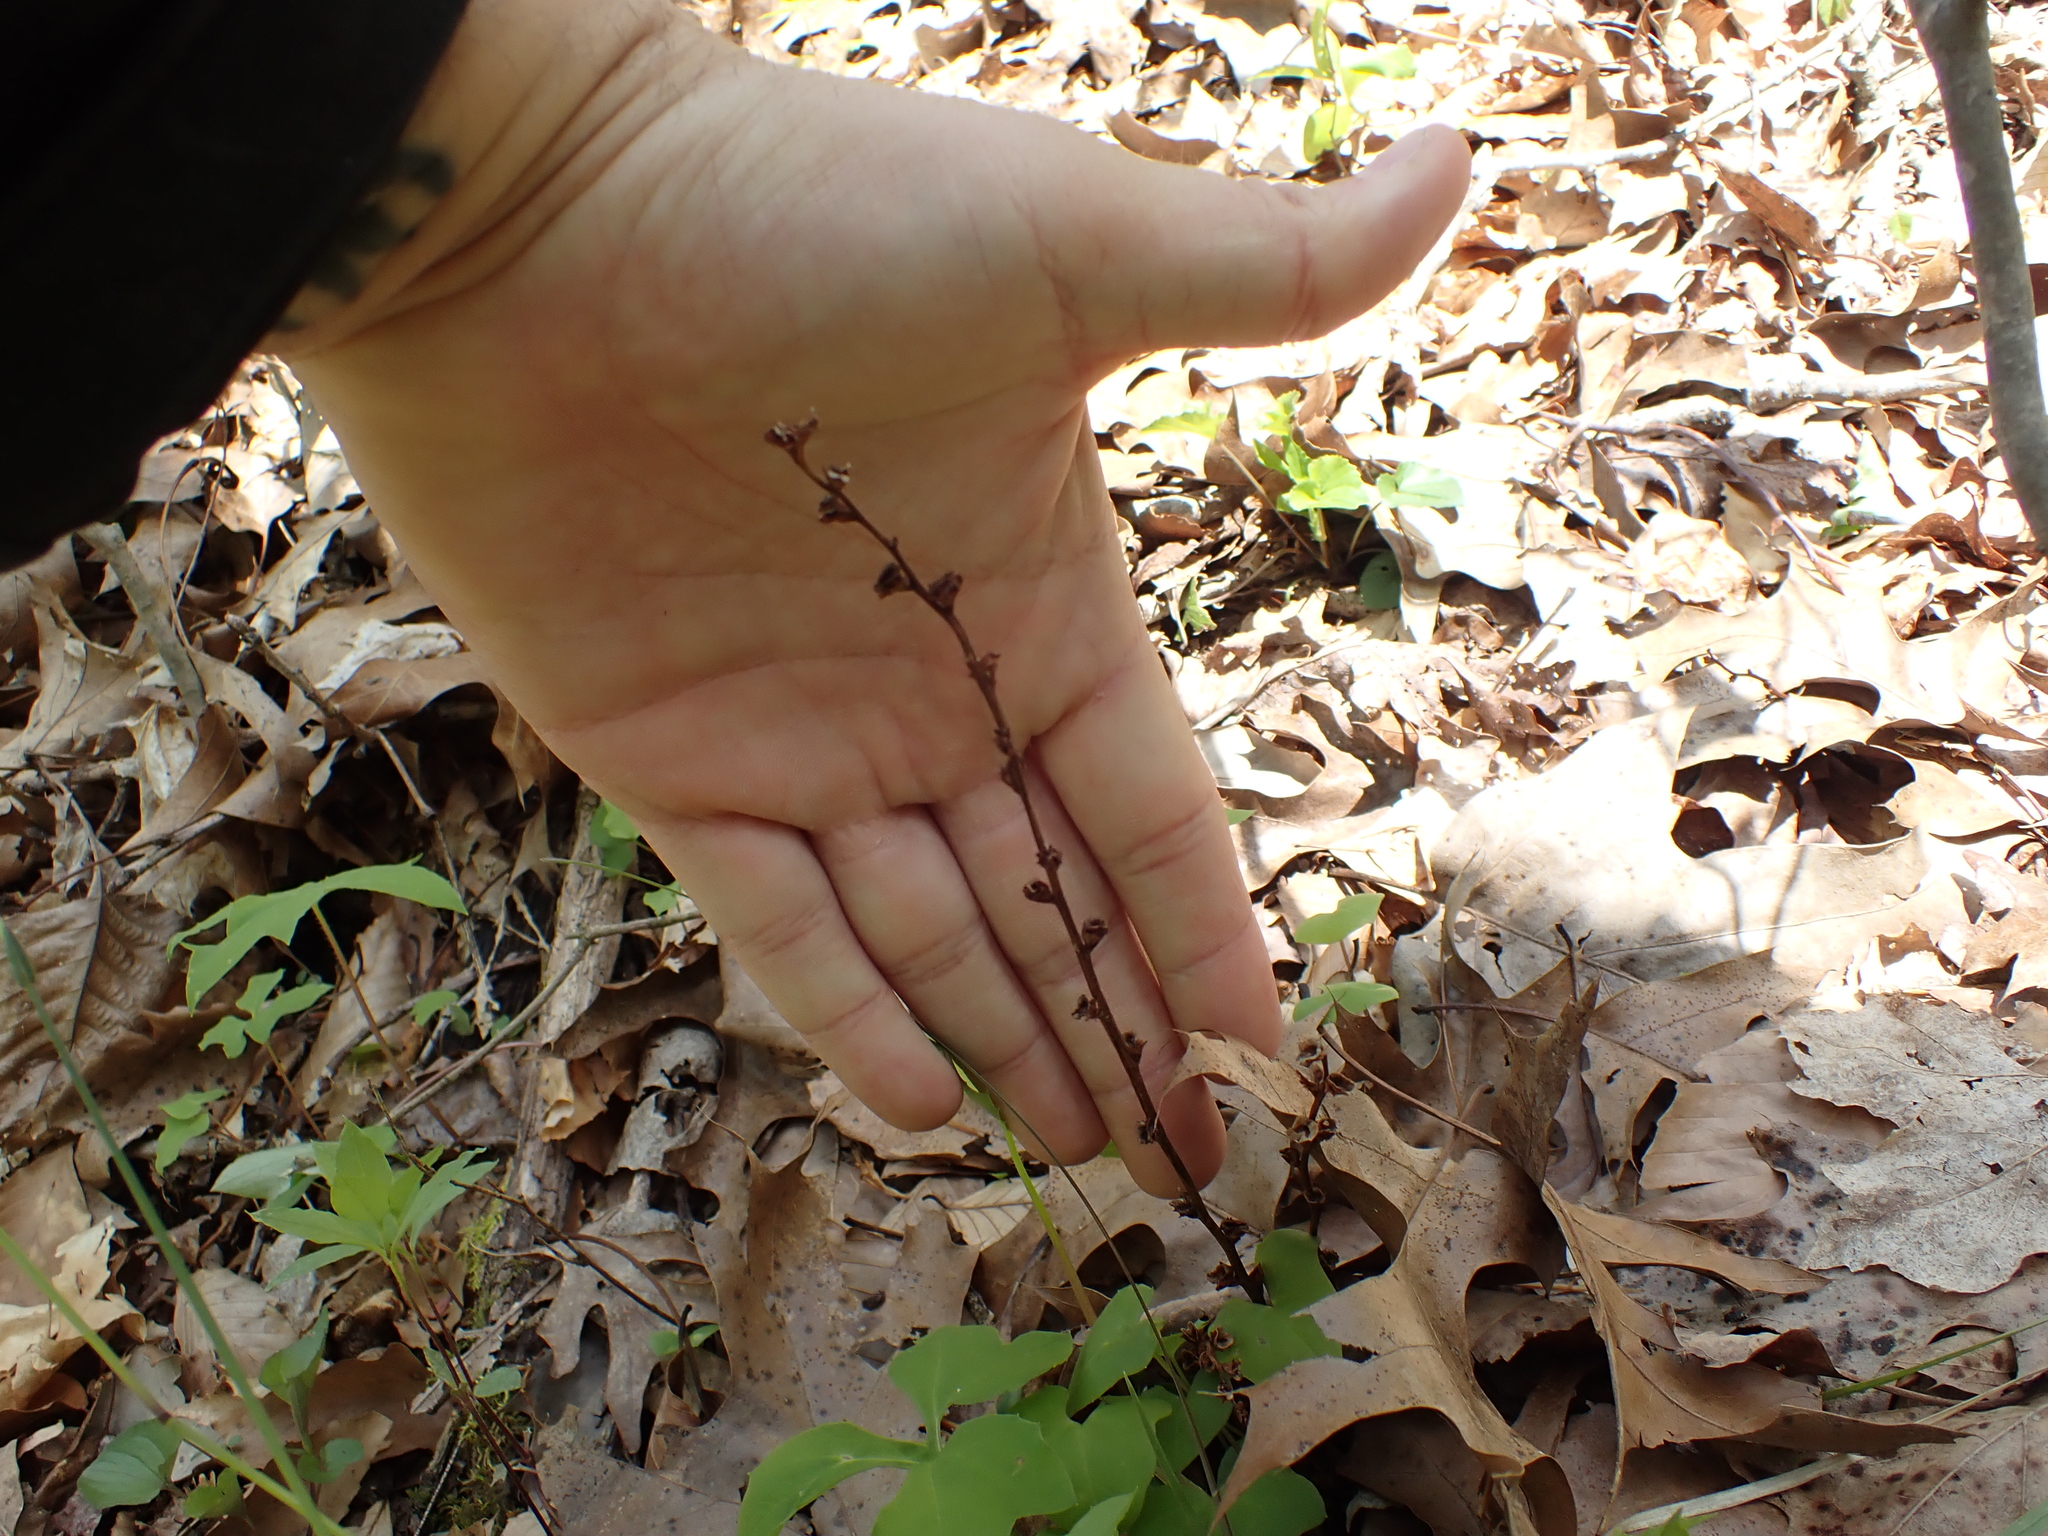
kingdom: Plantae
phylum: Tracheophyta
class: Magnoliopsida
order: Lamiales
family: Orobanchaceae
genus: Epifagus
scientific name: Epifagus virginiana
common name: Beechdrops
